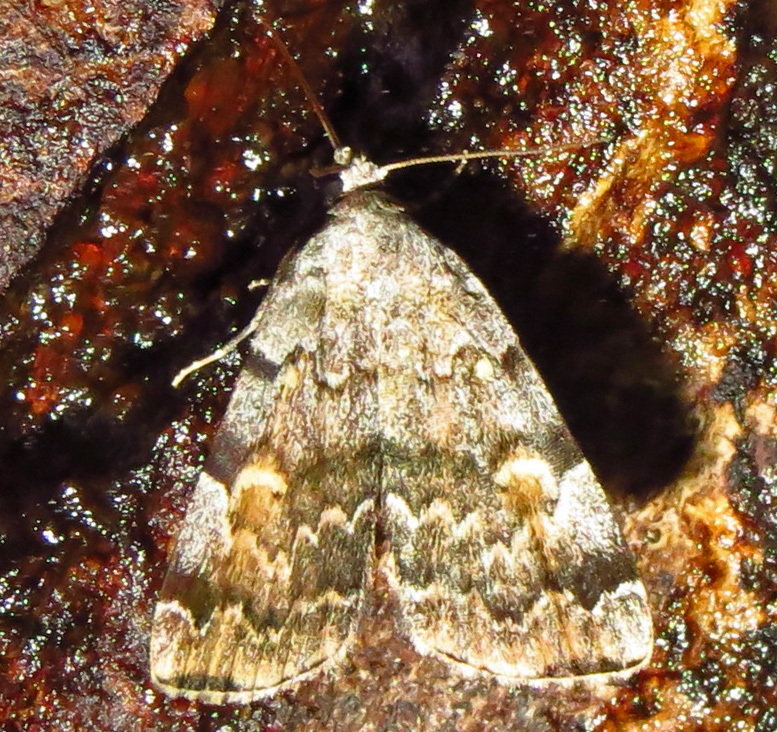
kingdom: Animalia
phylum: Arthropoda
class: Insecta
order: Lepidoptera
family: Erebidae
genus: Idia
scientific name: Idia americalis
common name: American idia moth
